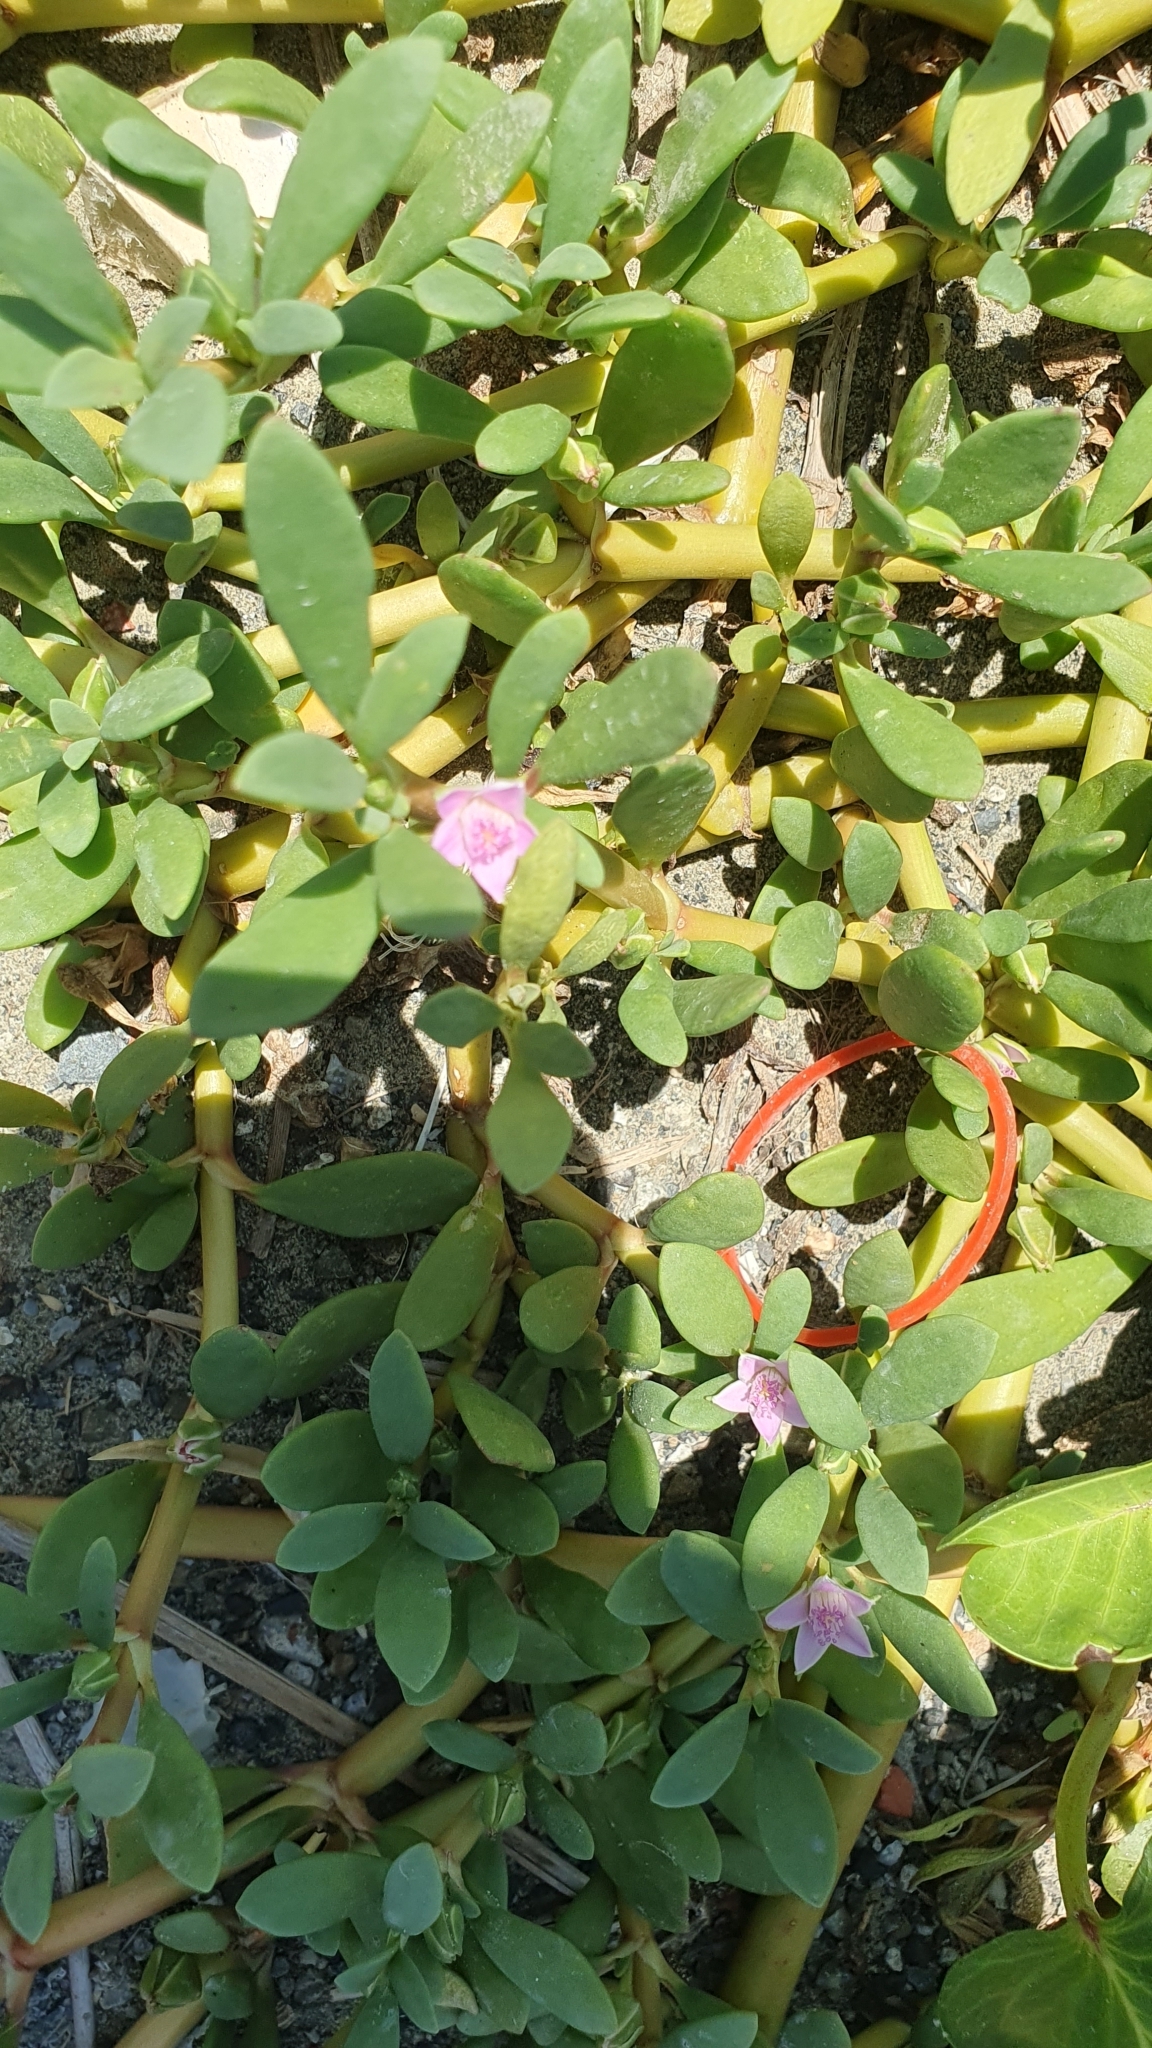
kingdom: Plantae
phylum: Tracheophyta
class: Magnoliopsida
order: Caryophyllales
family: Aizoaceae
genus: Sesuvium
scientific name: Sesuvium portulacastrum
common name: Sea-purslane
